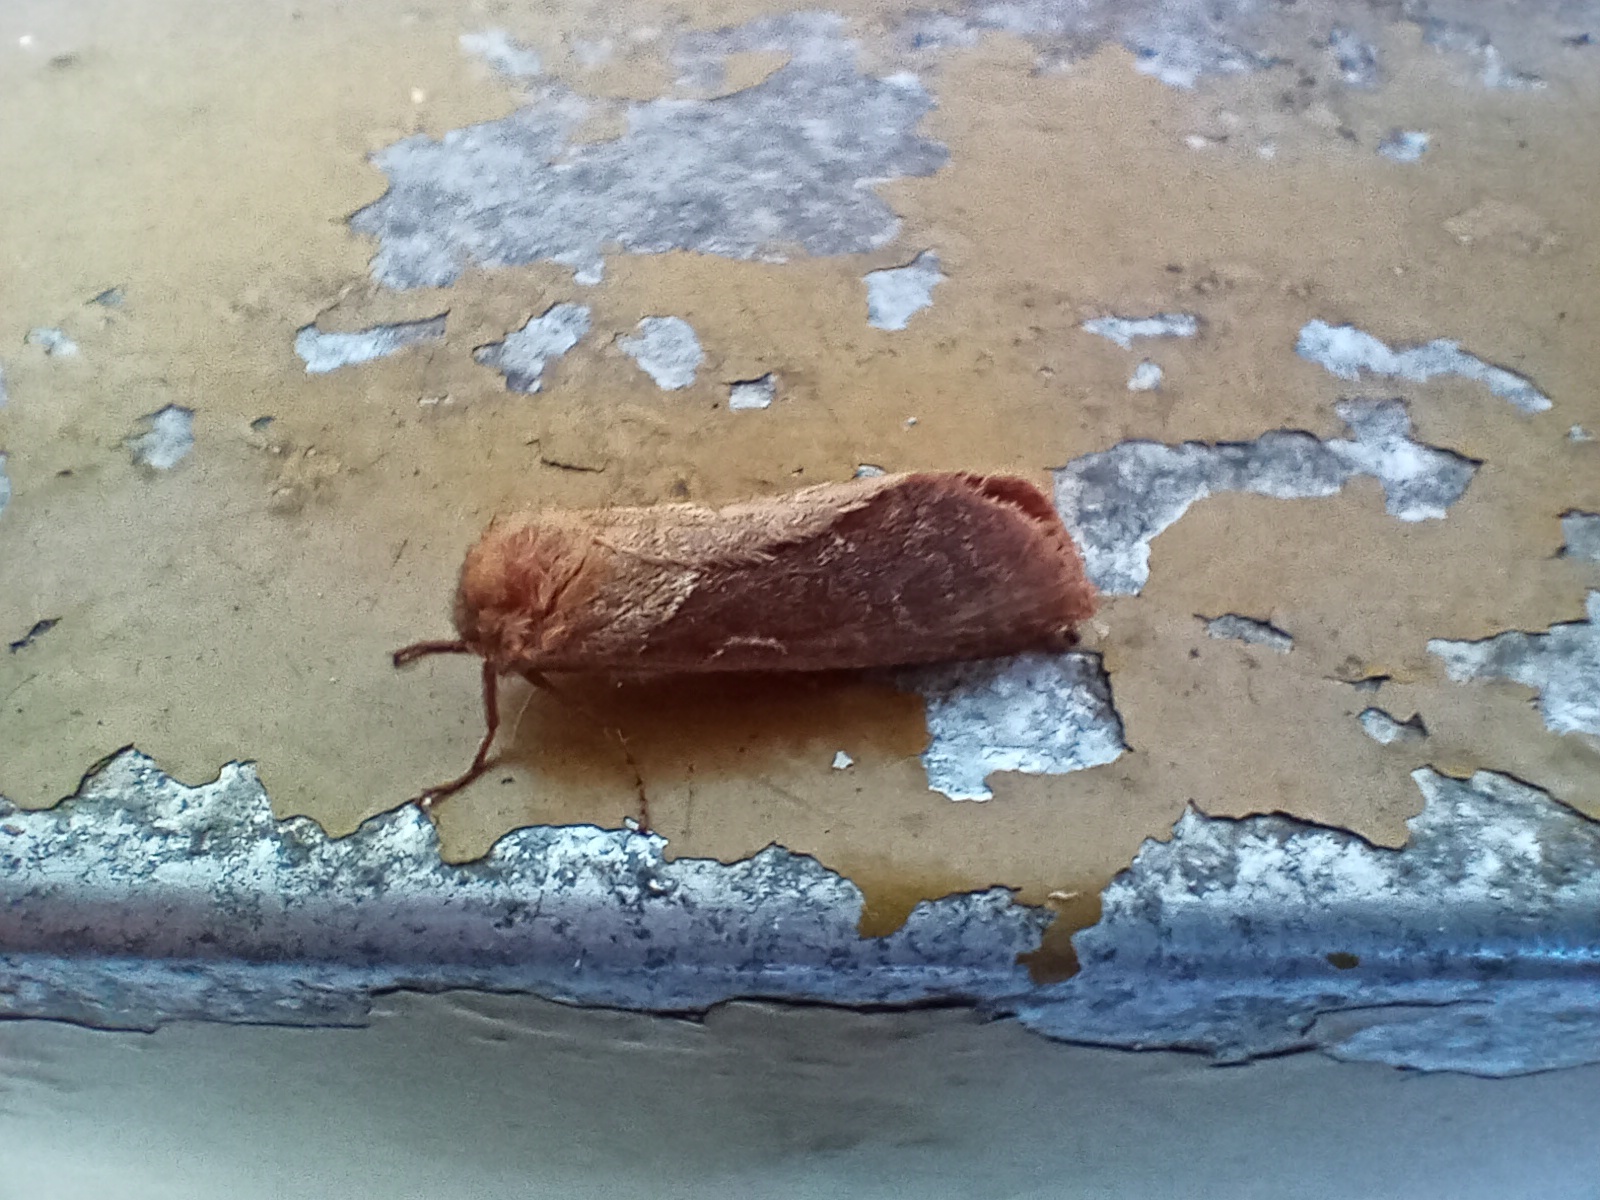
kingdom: Animalia
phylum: Arthropoda
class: Insecta
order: Lepidoptera
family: Hepialidae
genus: Triodia
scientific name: Triodia sylvina
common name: Orange swift
